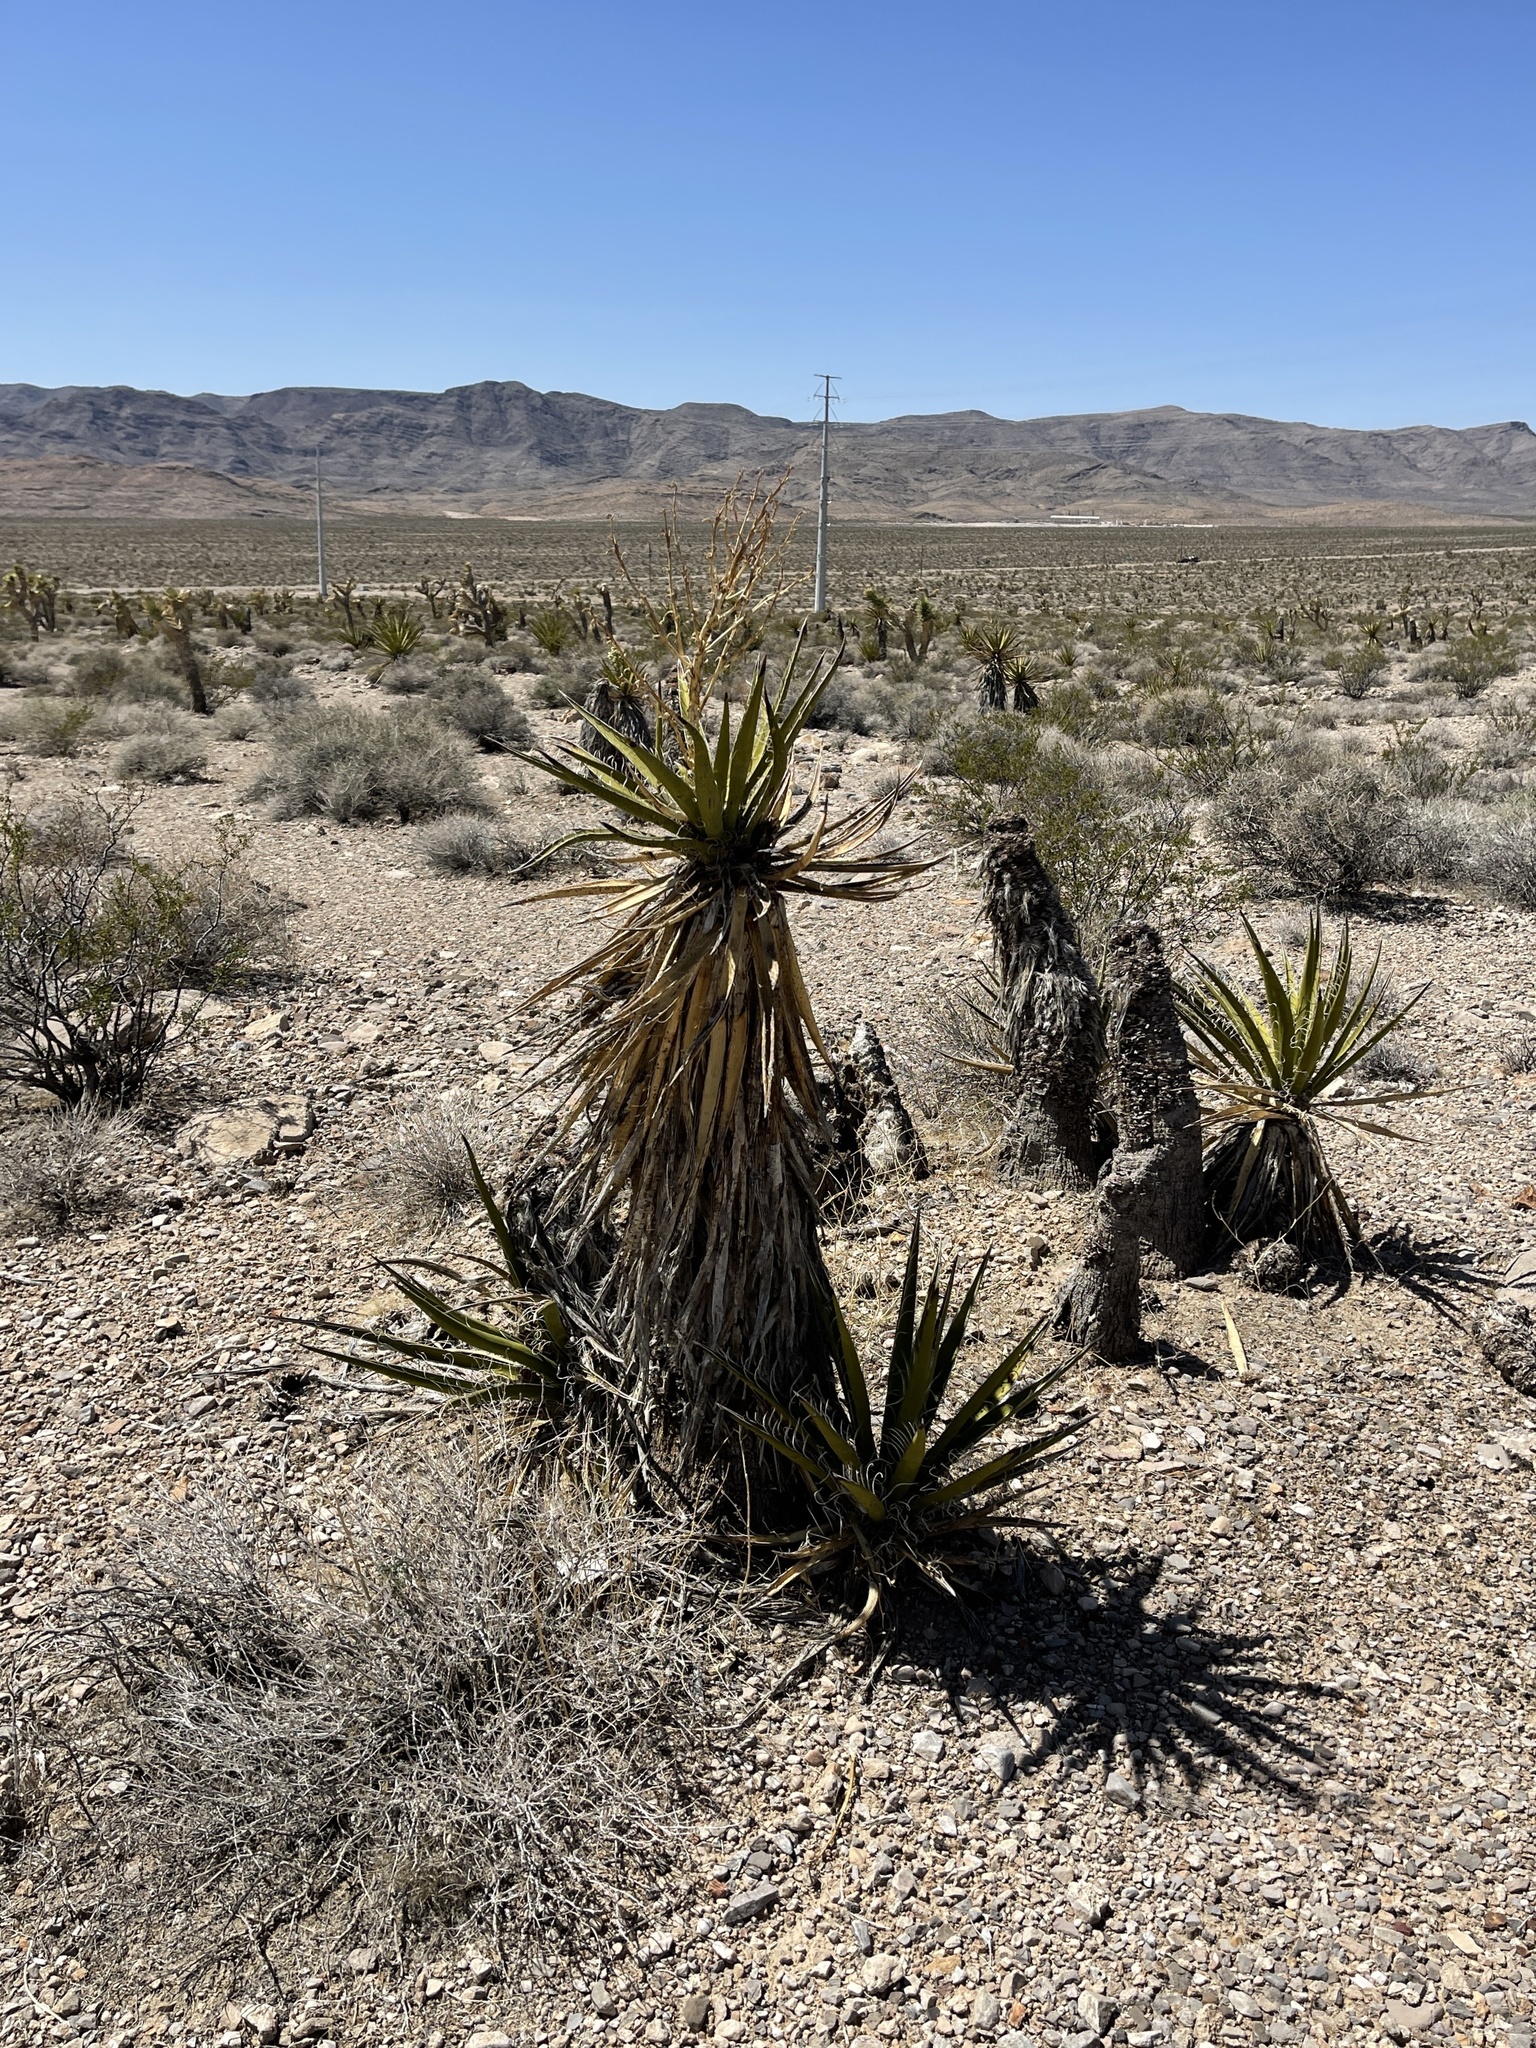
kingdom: Plantae
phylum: Tracheophyta
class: Liliopsida
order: Asparagales
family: Asparagaceae
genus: Yucca
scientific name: Yucca schidigera
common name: Mojave yucca
